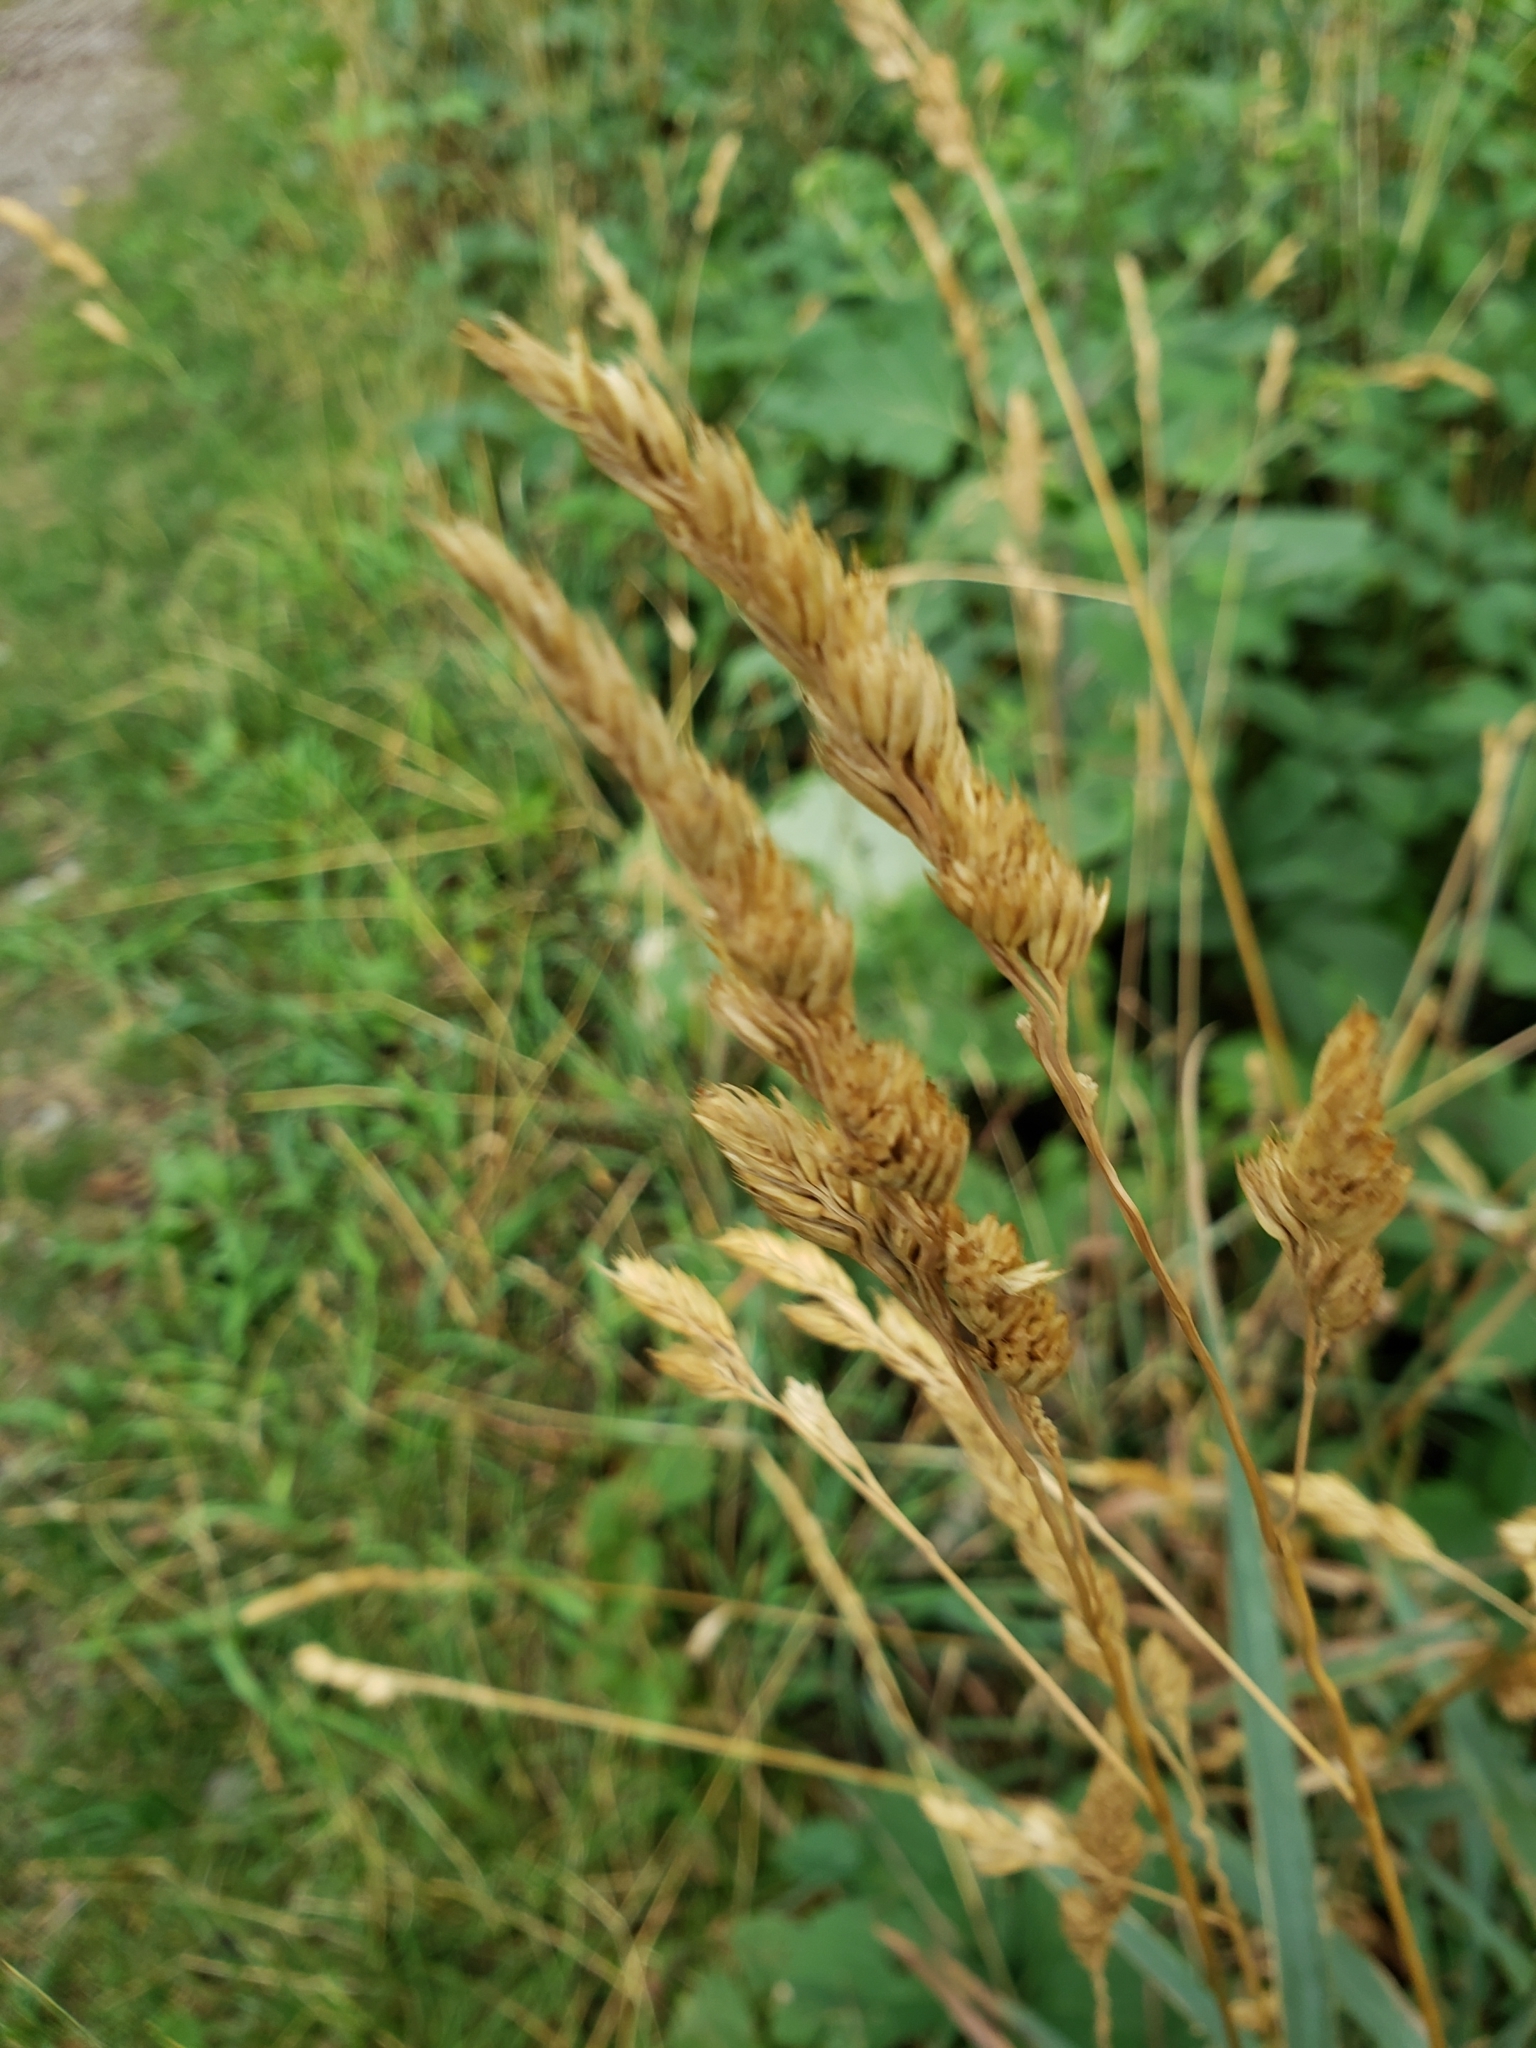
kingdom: Plantae
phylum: Tracheophyta
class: Liliopsida
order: Poales
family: Poaceae
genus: Dactylis
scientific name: Dactylis glomerata
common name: Orchardgrass
